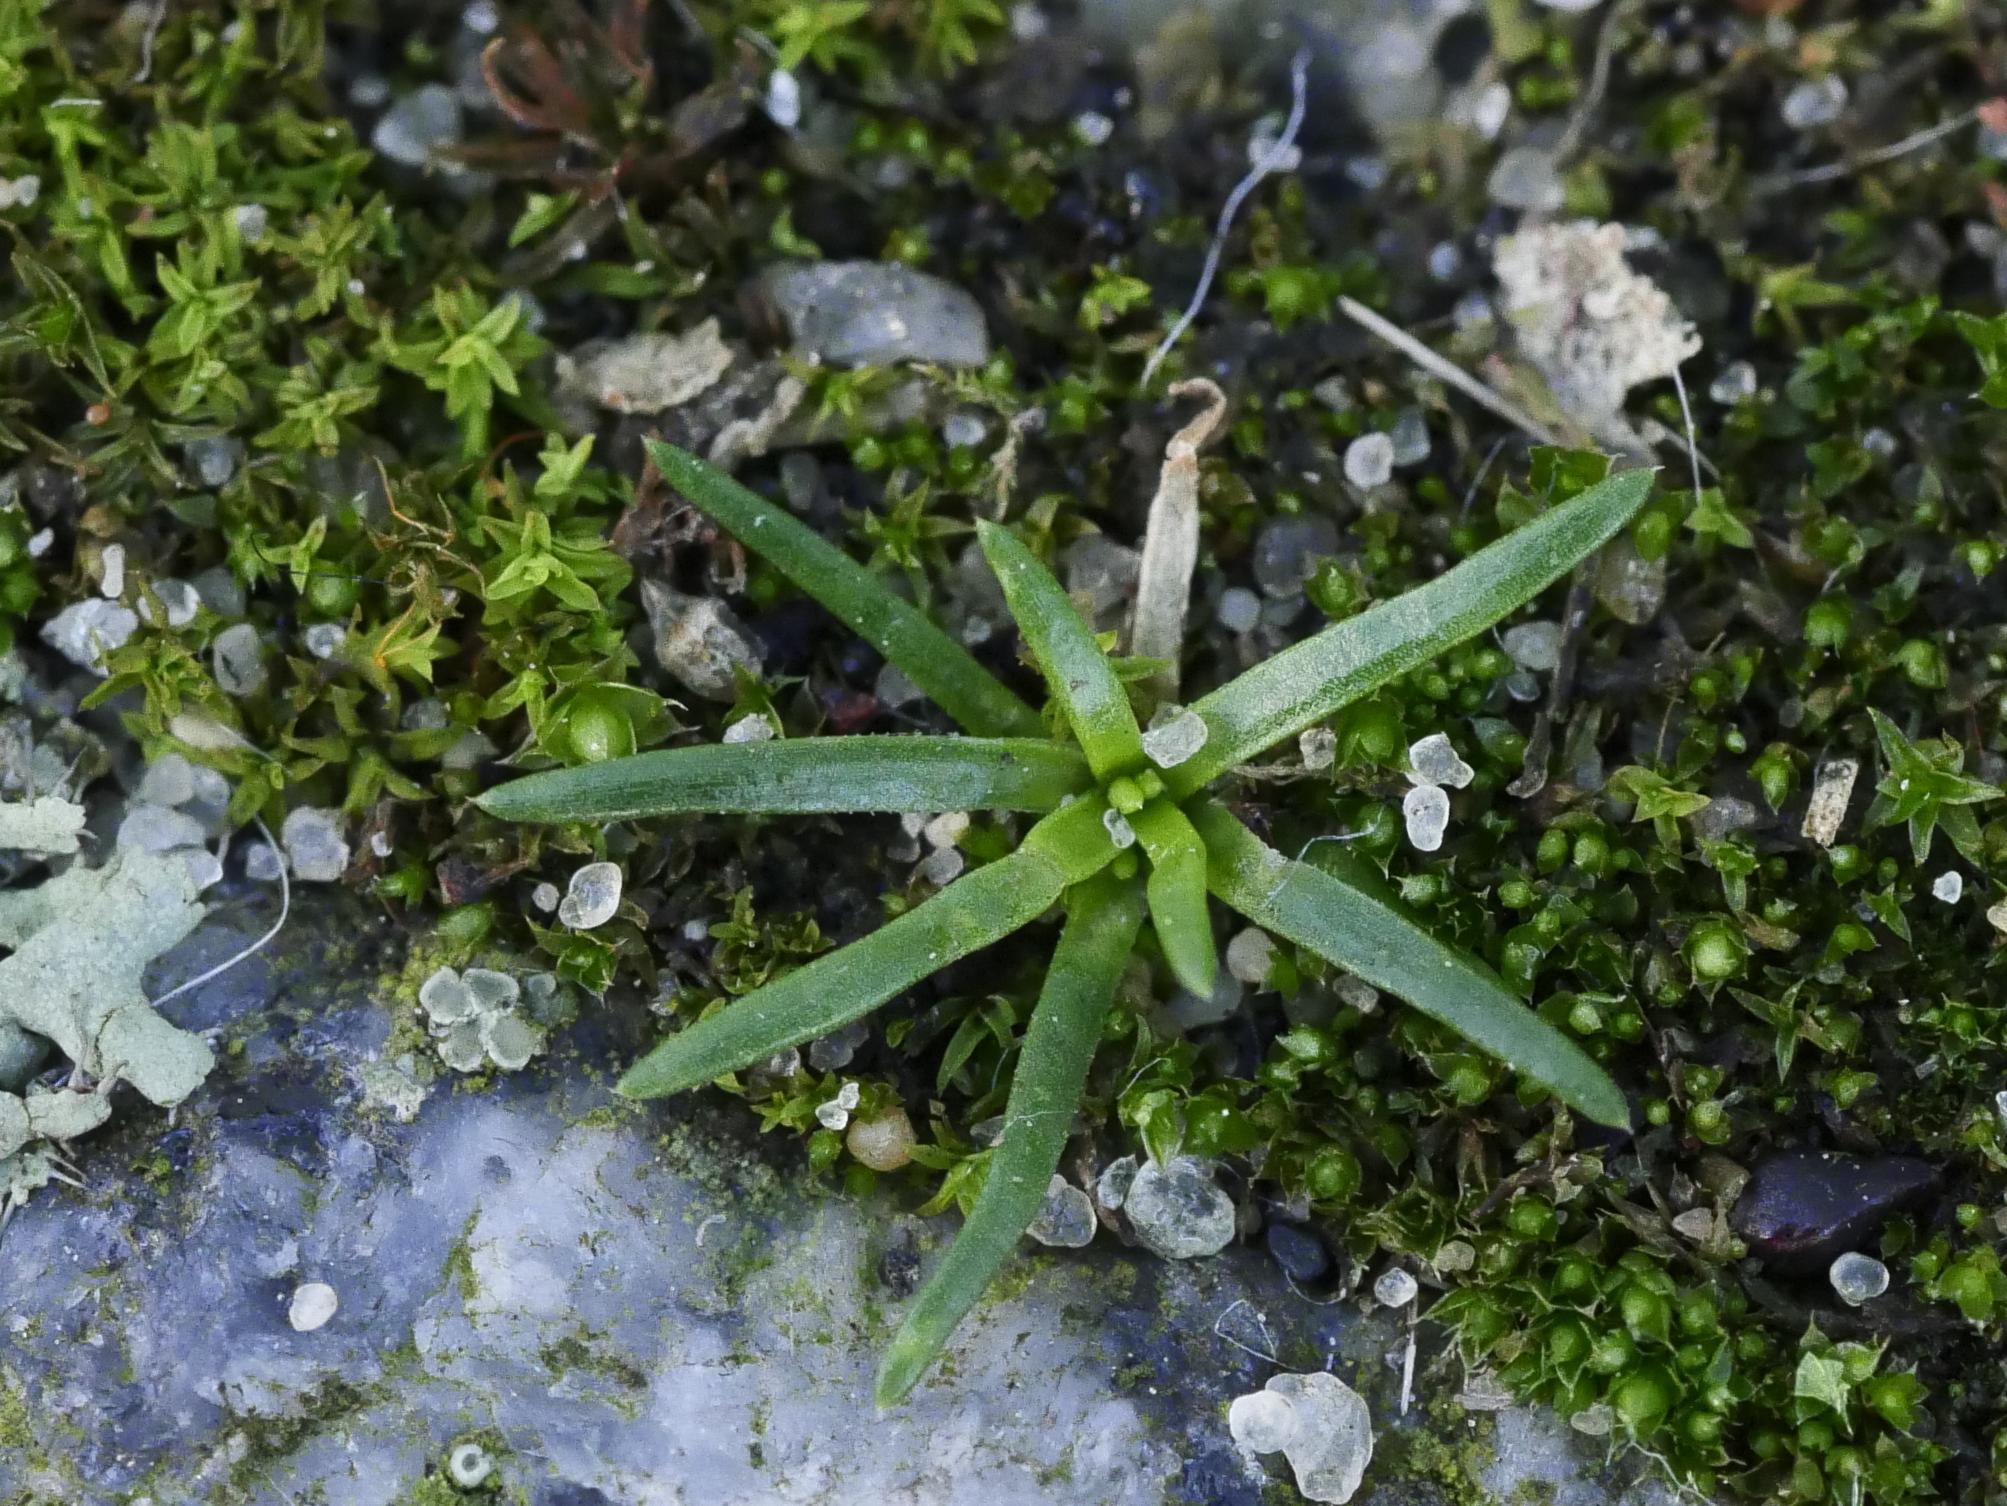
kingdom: Plantae
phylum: Tracheophyta
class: Magnoliopsida
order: Caryophyllales
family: Caryophyllaceae
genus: Sagina
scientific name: Sagina procumbens
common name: Procumbent pearlwort
